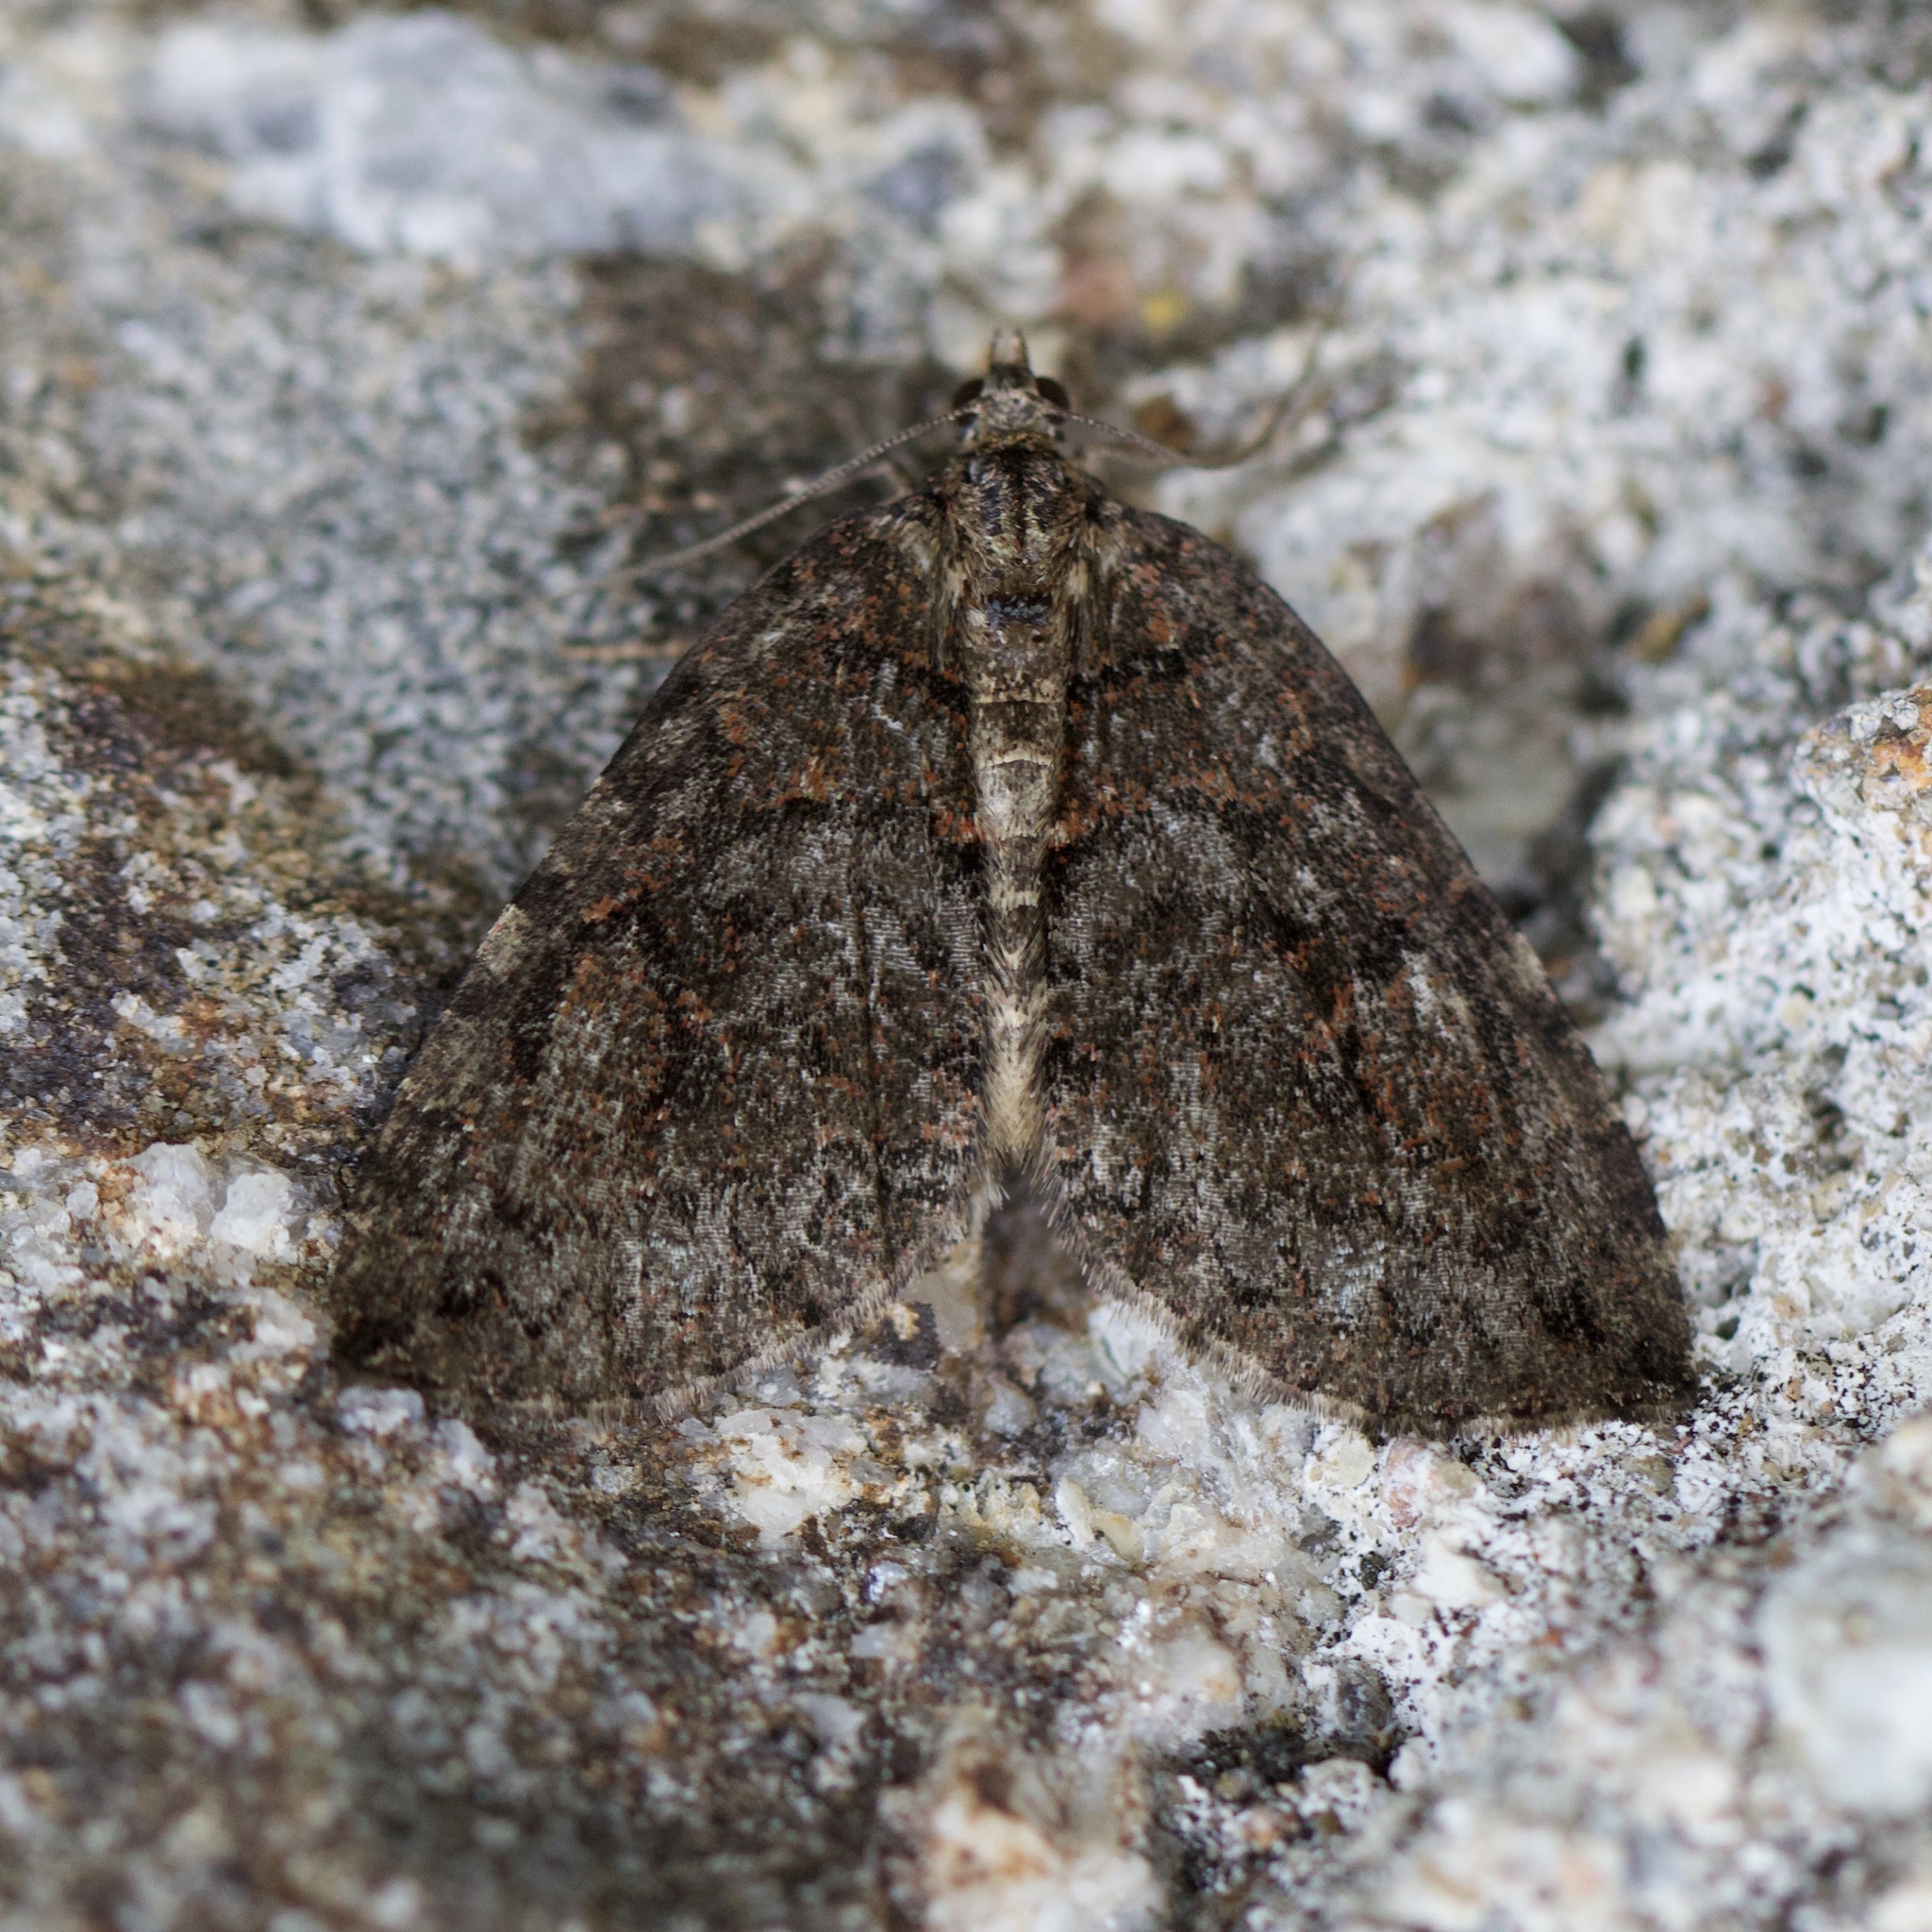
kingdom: Animalia
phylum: Arthropoda
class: Insecta
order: Lepidoptera
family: Geometridae
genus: Hydriomena
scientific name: Hydriomena furcata
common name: July highflyer
